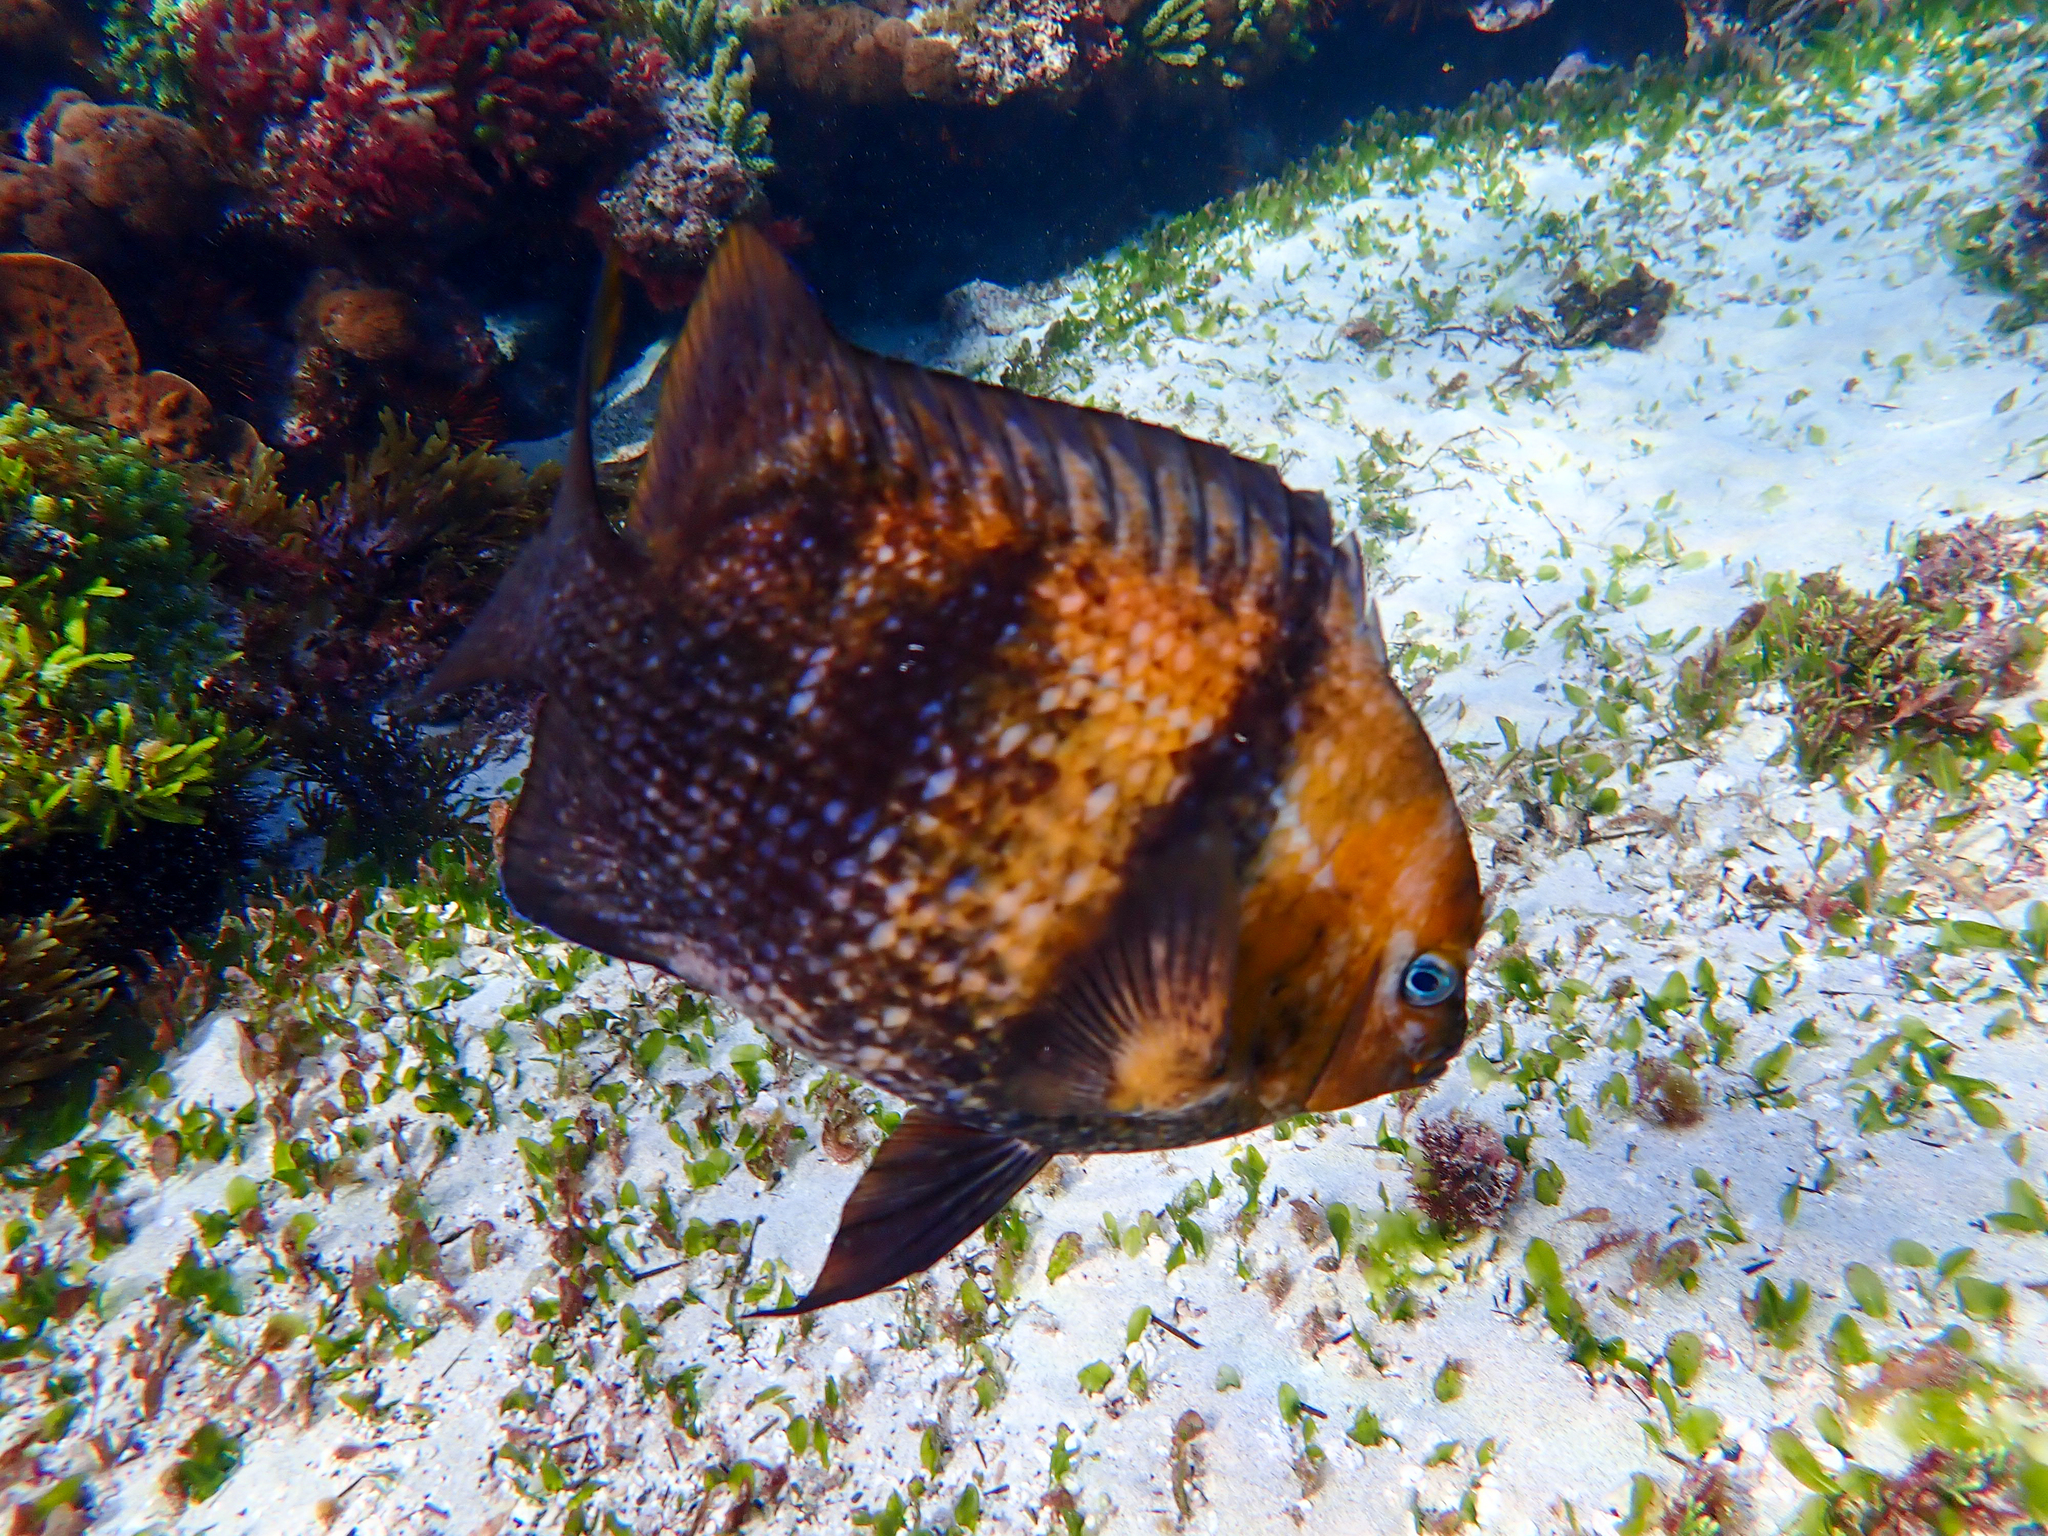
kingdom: Animalia
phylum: Chordata
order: Perciformes
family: Pomacentridae
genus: Parma
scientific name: Parma polylepis
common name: Banded parma
